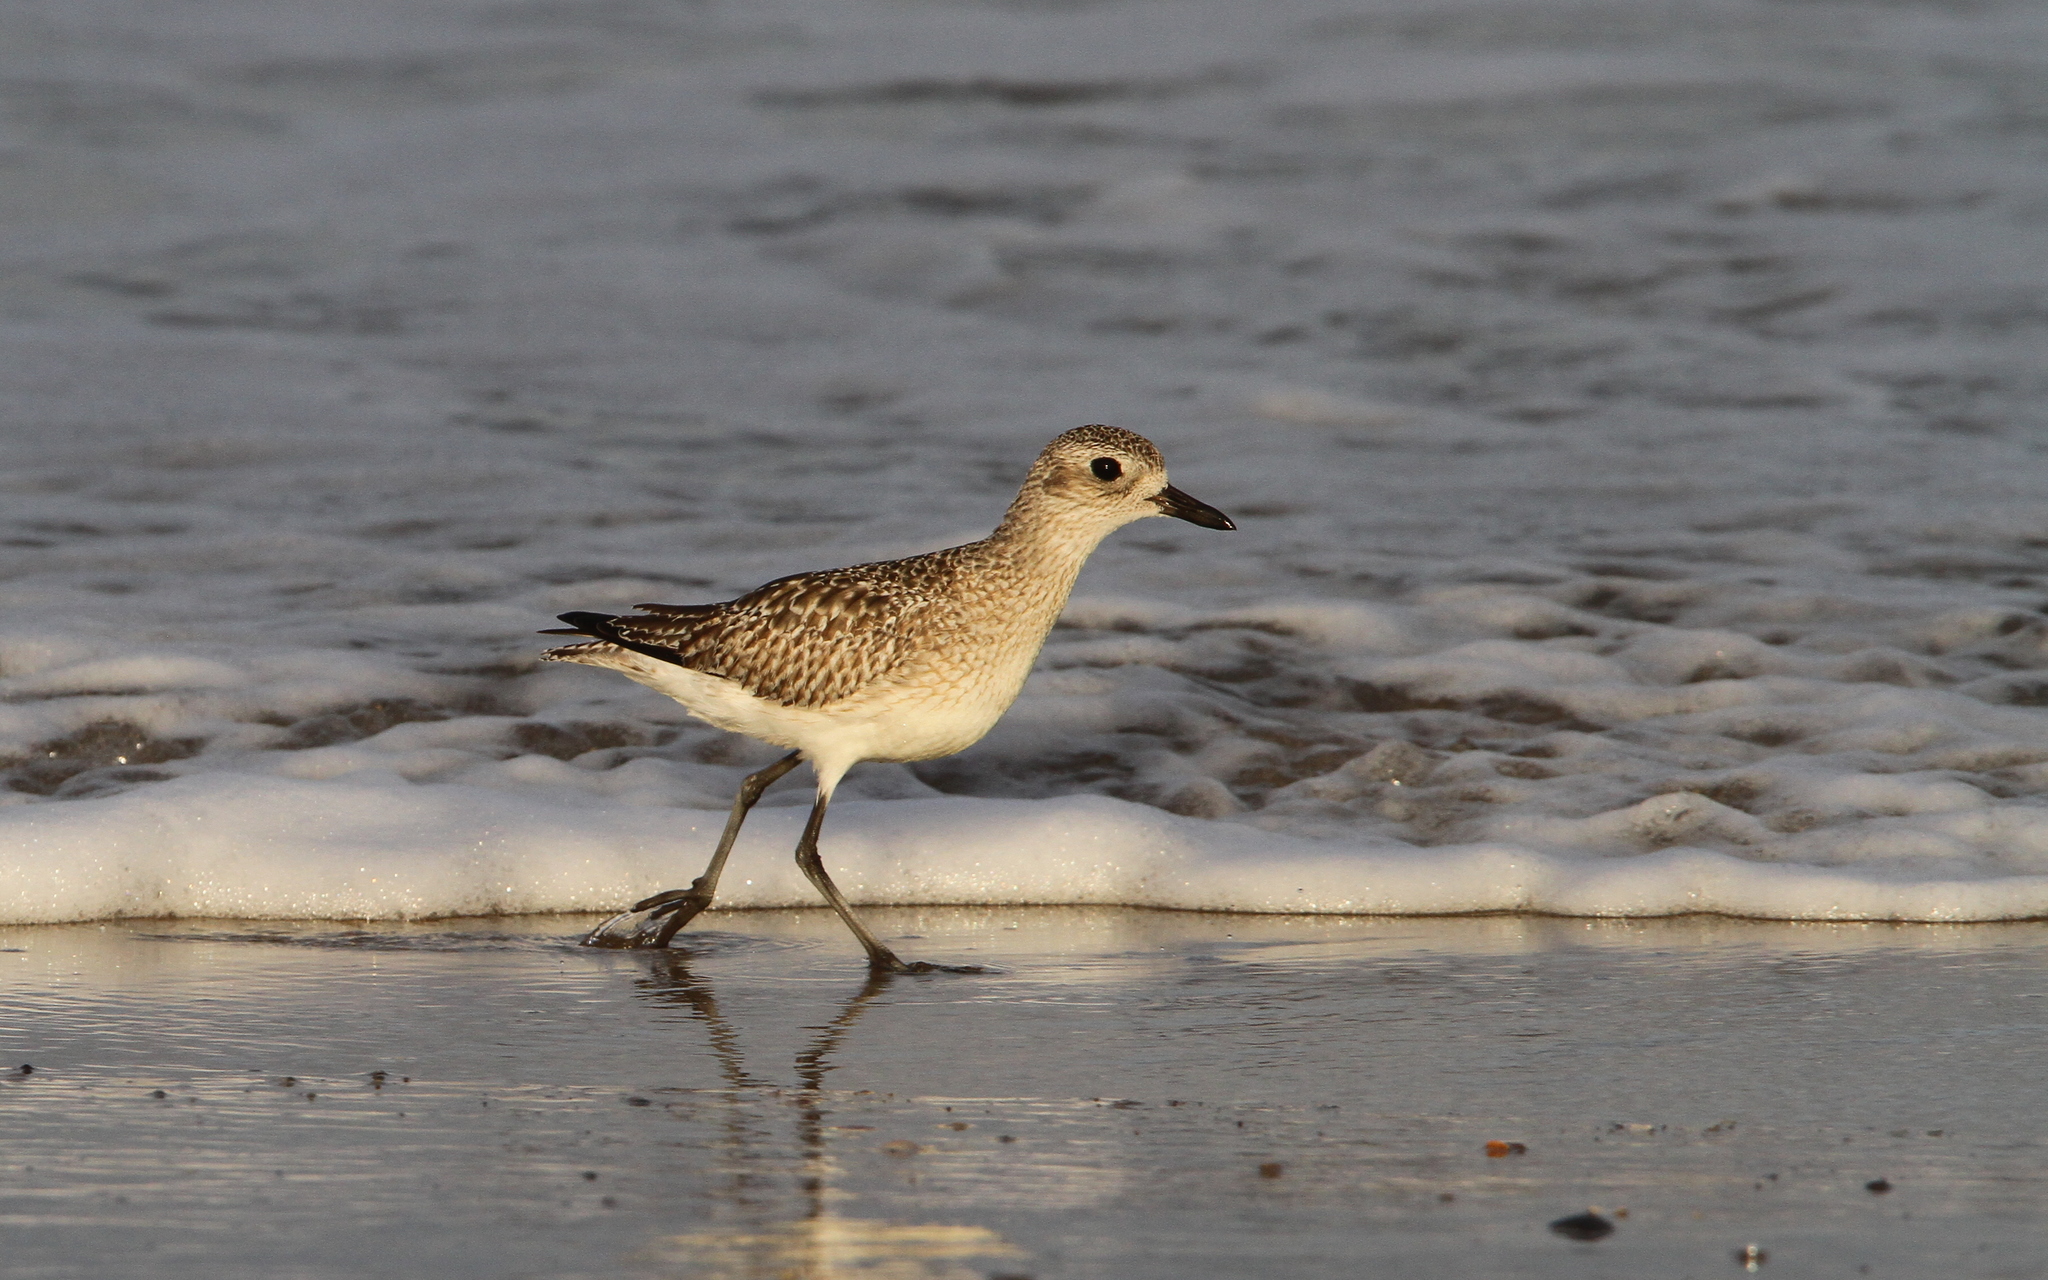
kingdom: Animalia
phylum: Chordata
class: Aves
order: Charadriiformes
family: Charadriidae
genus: Pluvialis
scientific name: Pluvialis squatarola
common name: Grey plover
